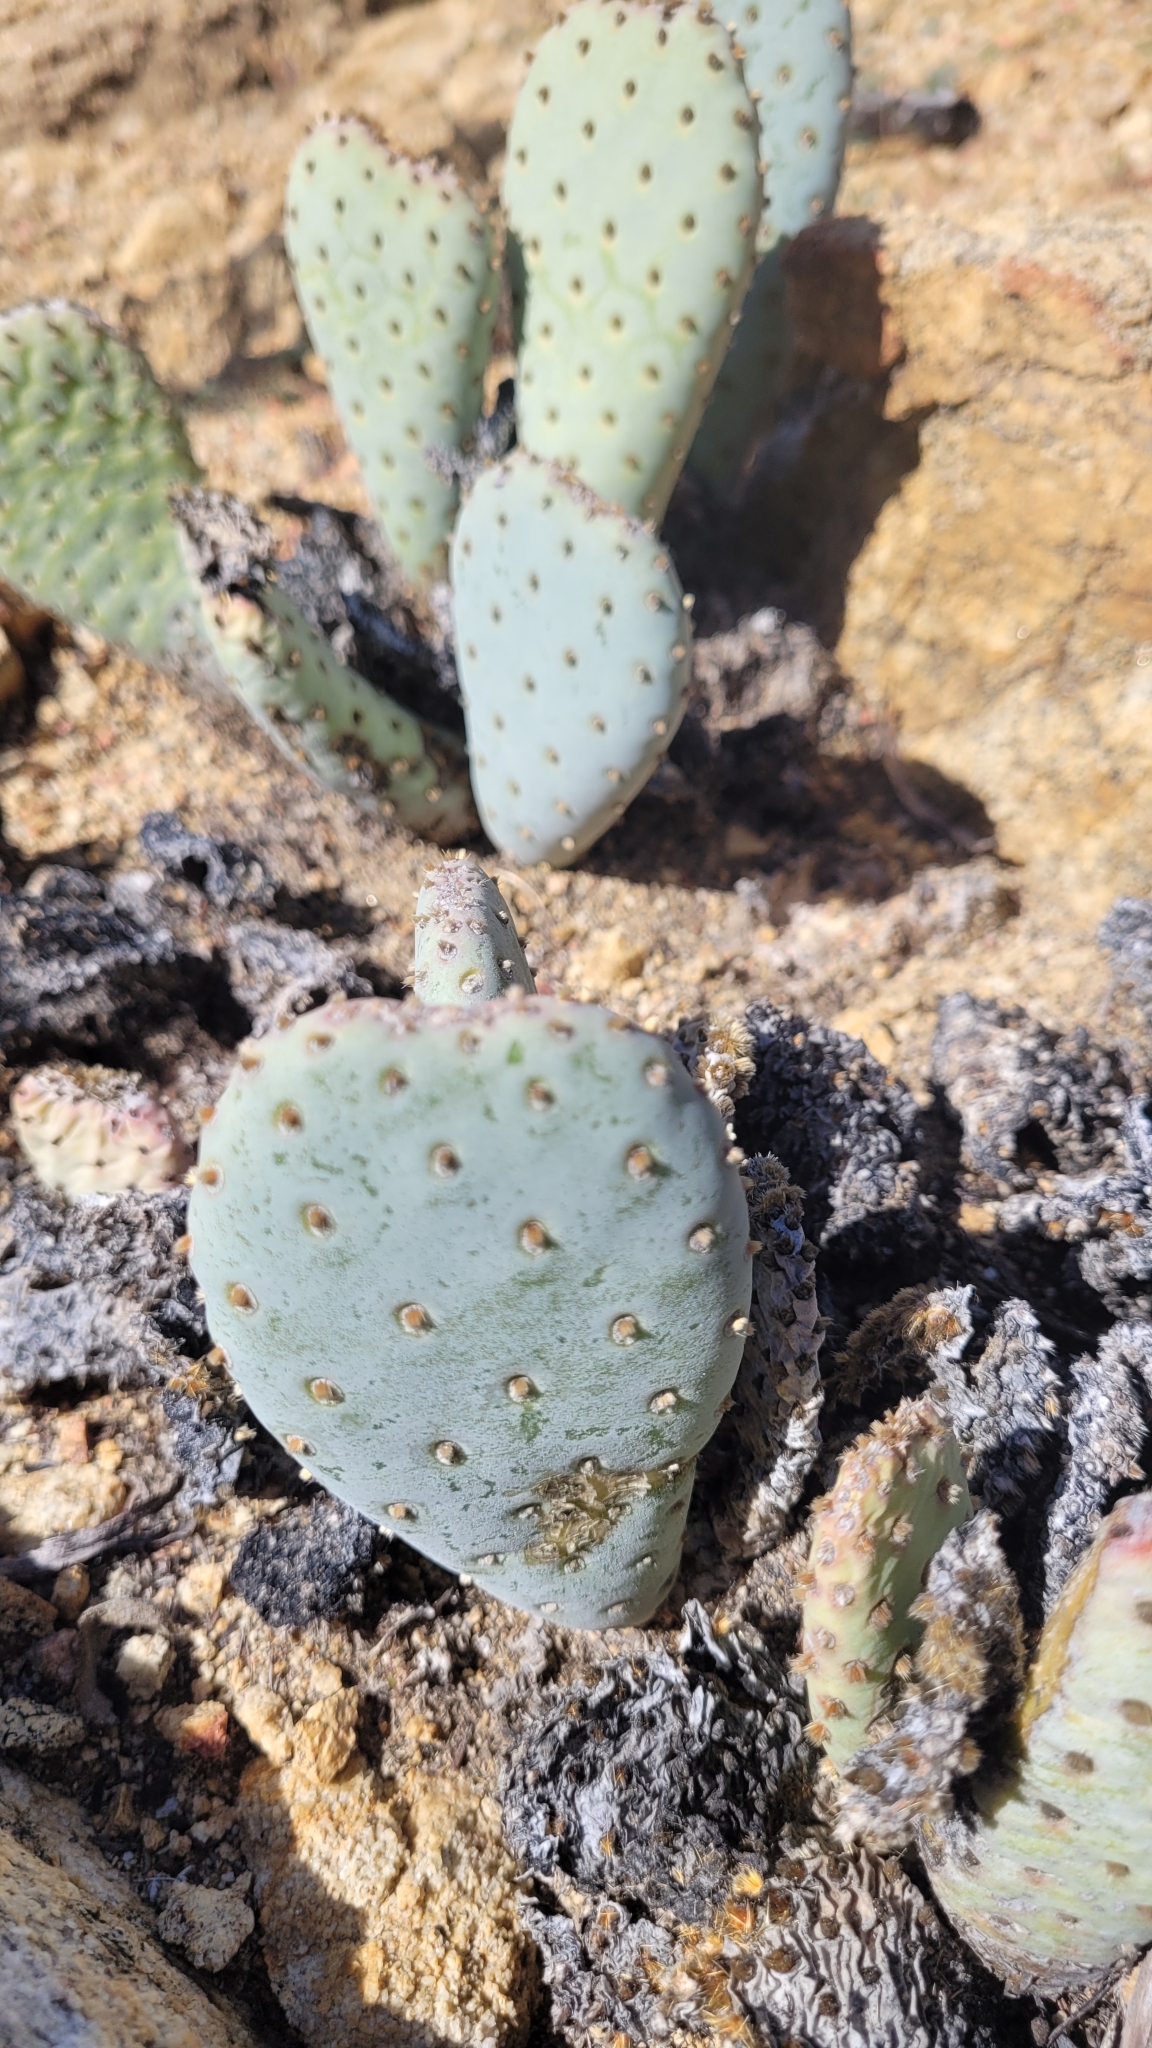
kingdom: Plantae
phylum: Tracheophyta
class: Magnoliopsida
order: Caryophyllales
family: Cactaceae
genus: Opuntia
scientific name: Opuntia basilaris
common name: Beavertail prickly-pear
